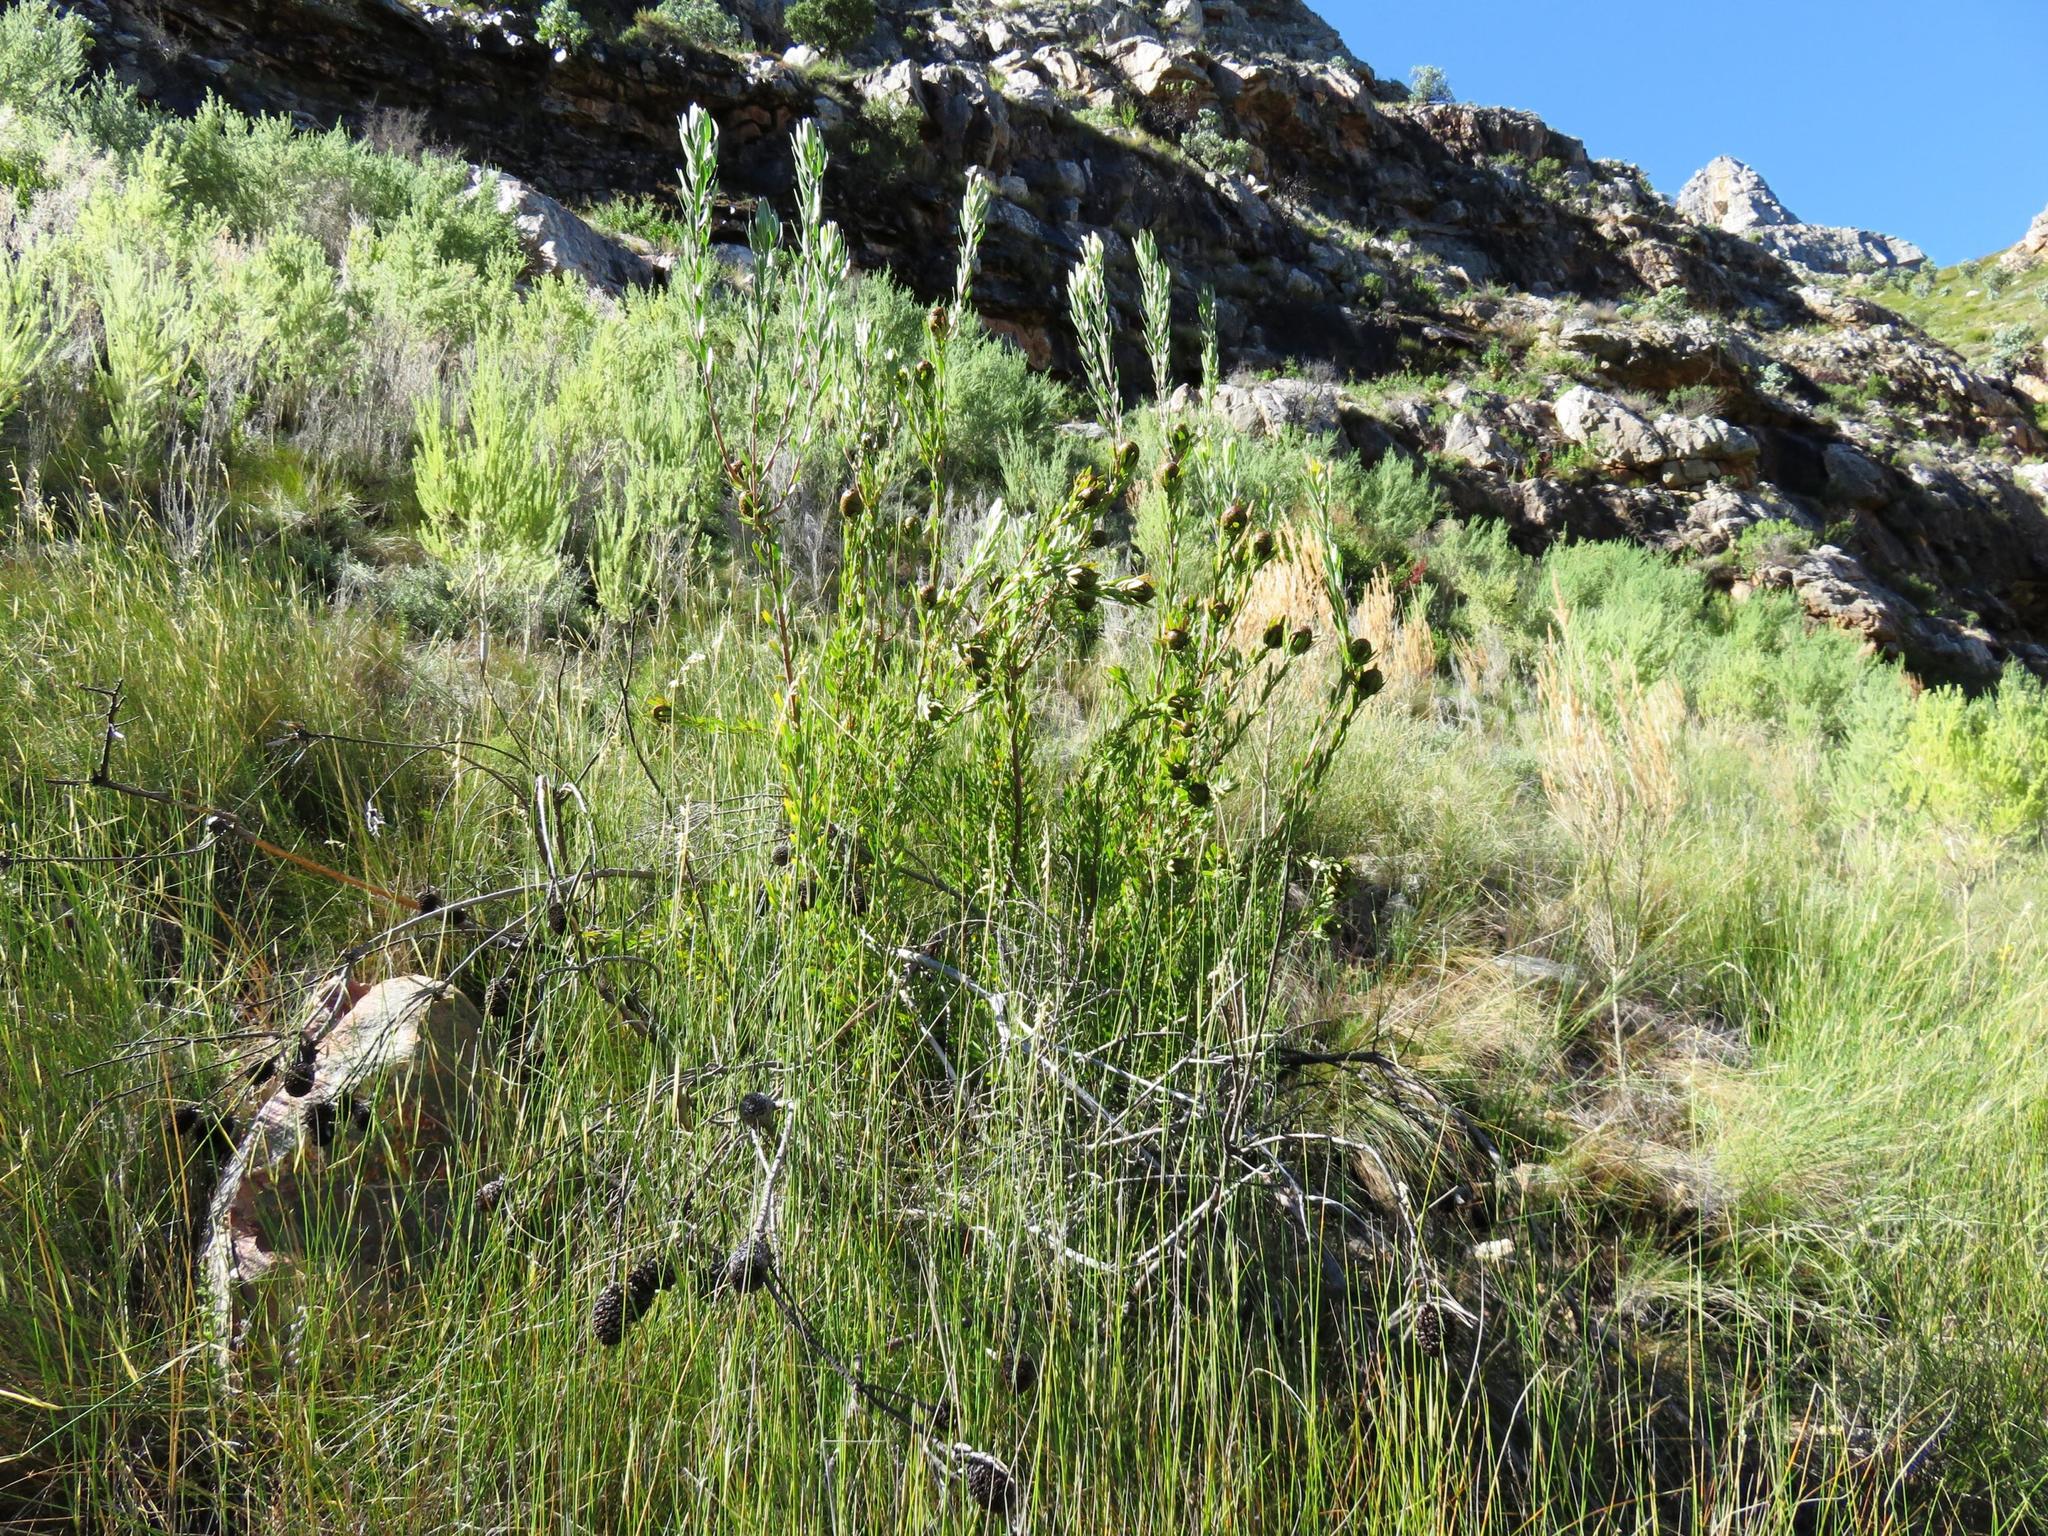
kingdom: Plantae
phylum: Tracheophyta
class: Magnoliopsida
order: Fabales
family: Fabaceae
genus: Aspalathus
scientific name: Aspalathus decora
